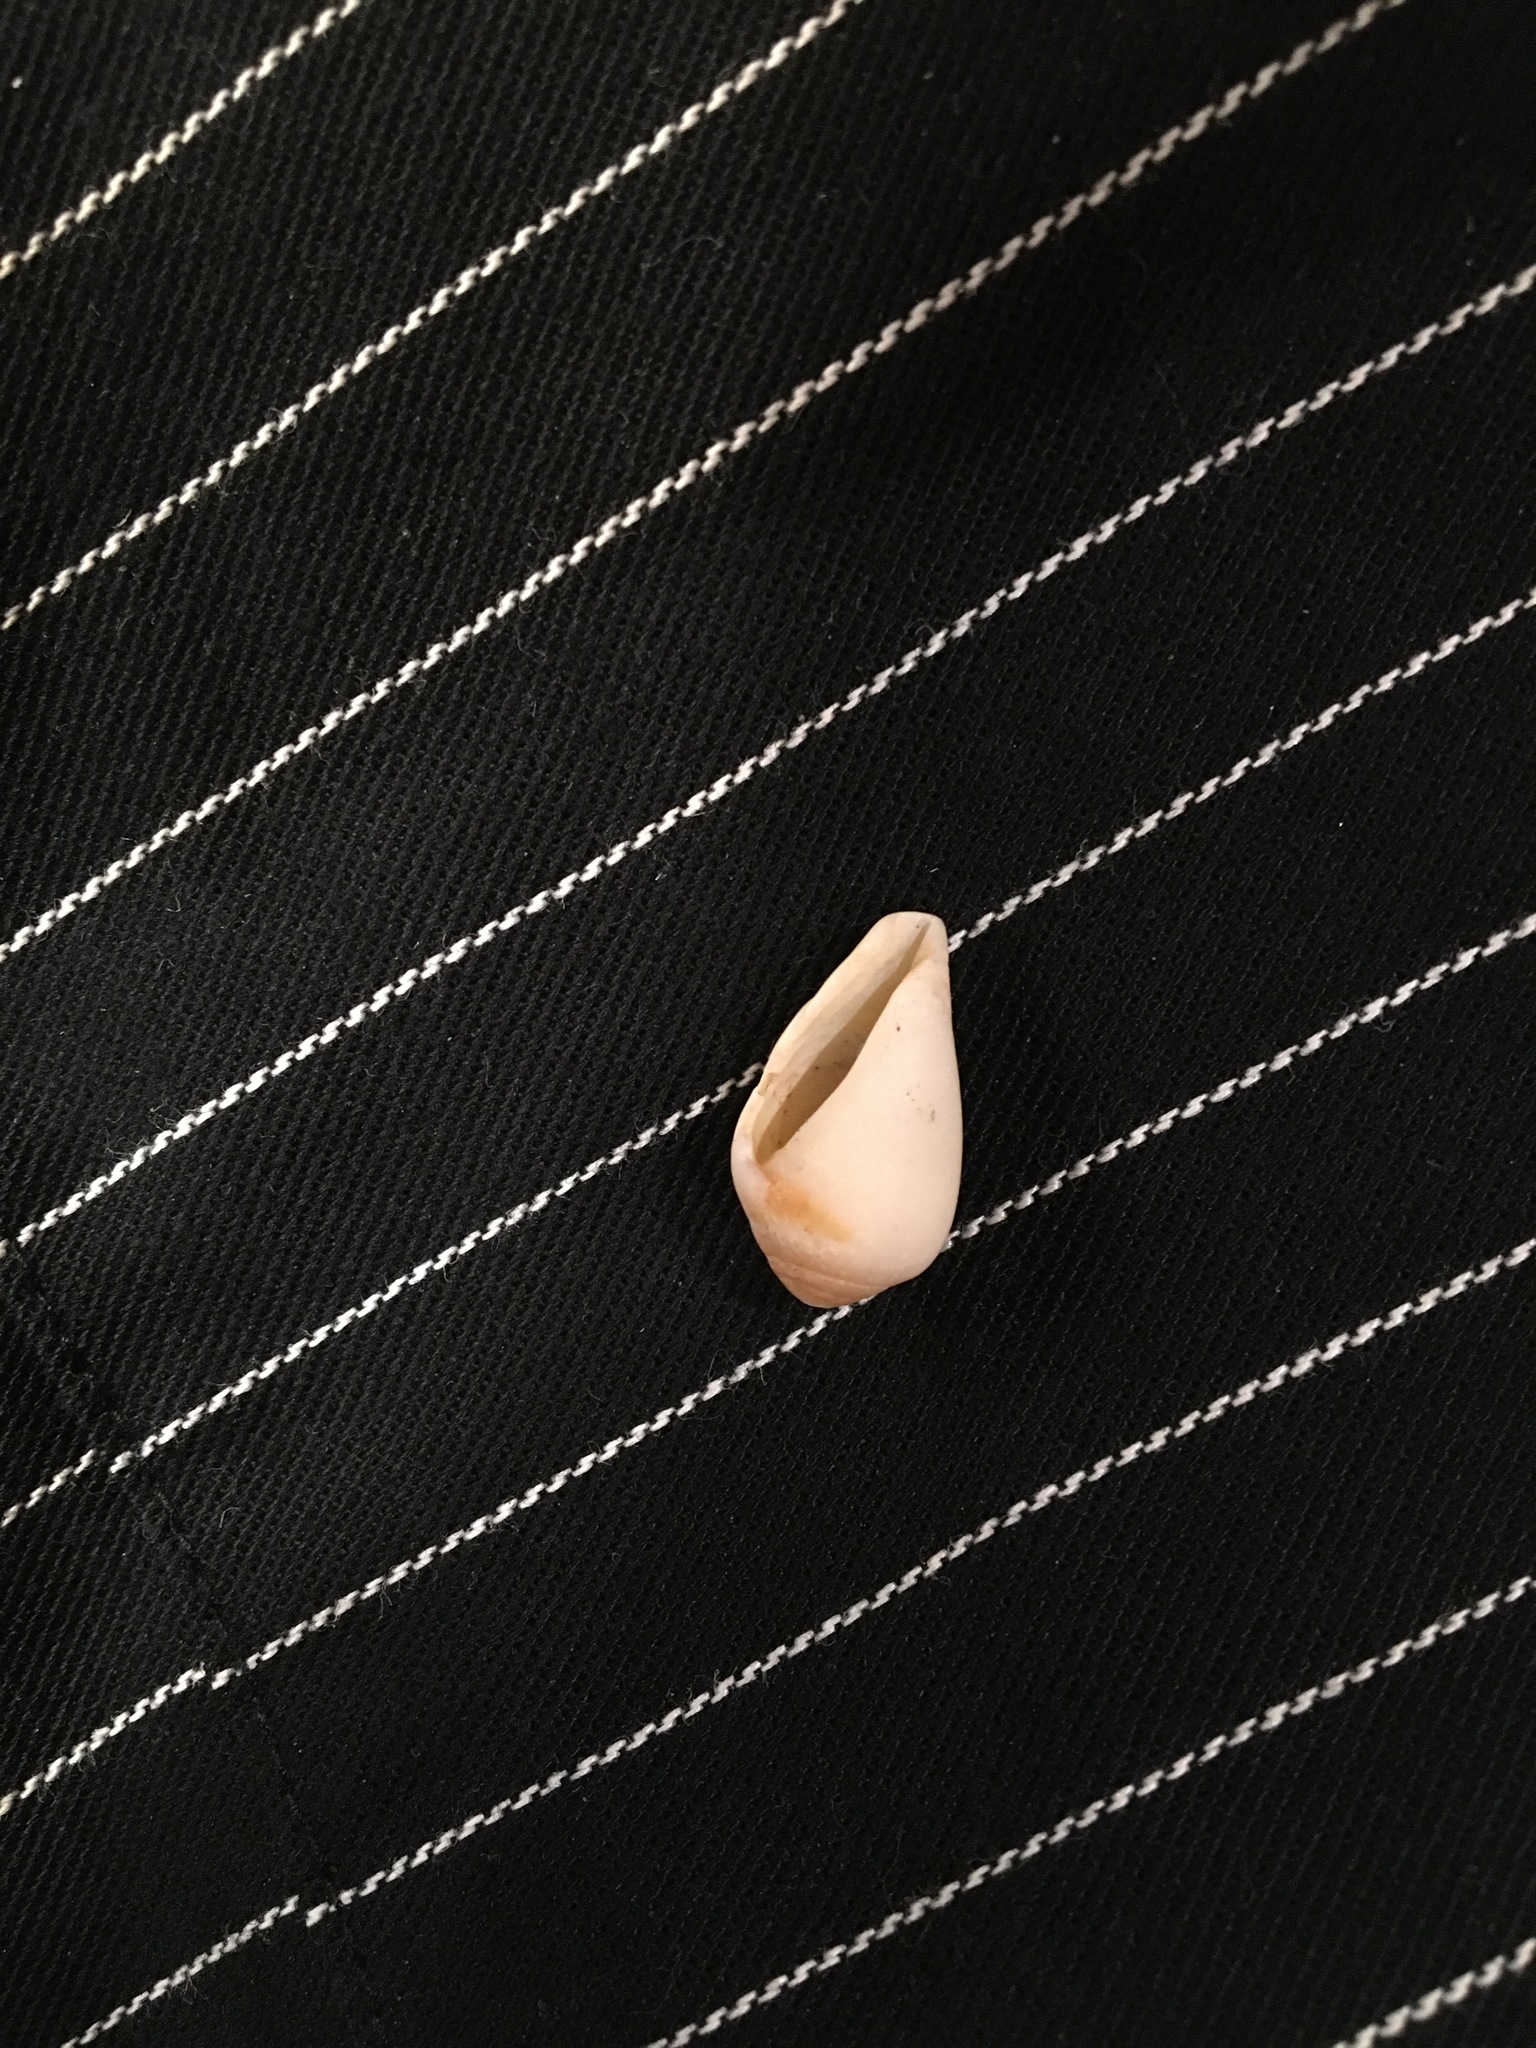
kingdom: Animalia
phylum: Mollusca
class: Gastropoda
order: Neogastropoda
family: Conidae
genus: Californiconus
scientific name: Californiconus californicus
